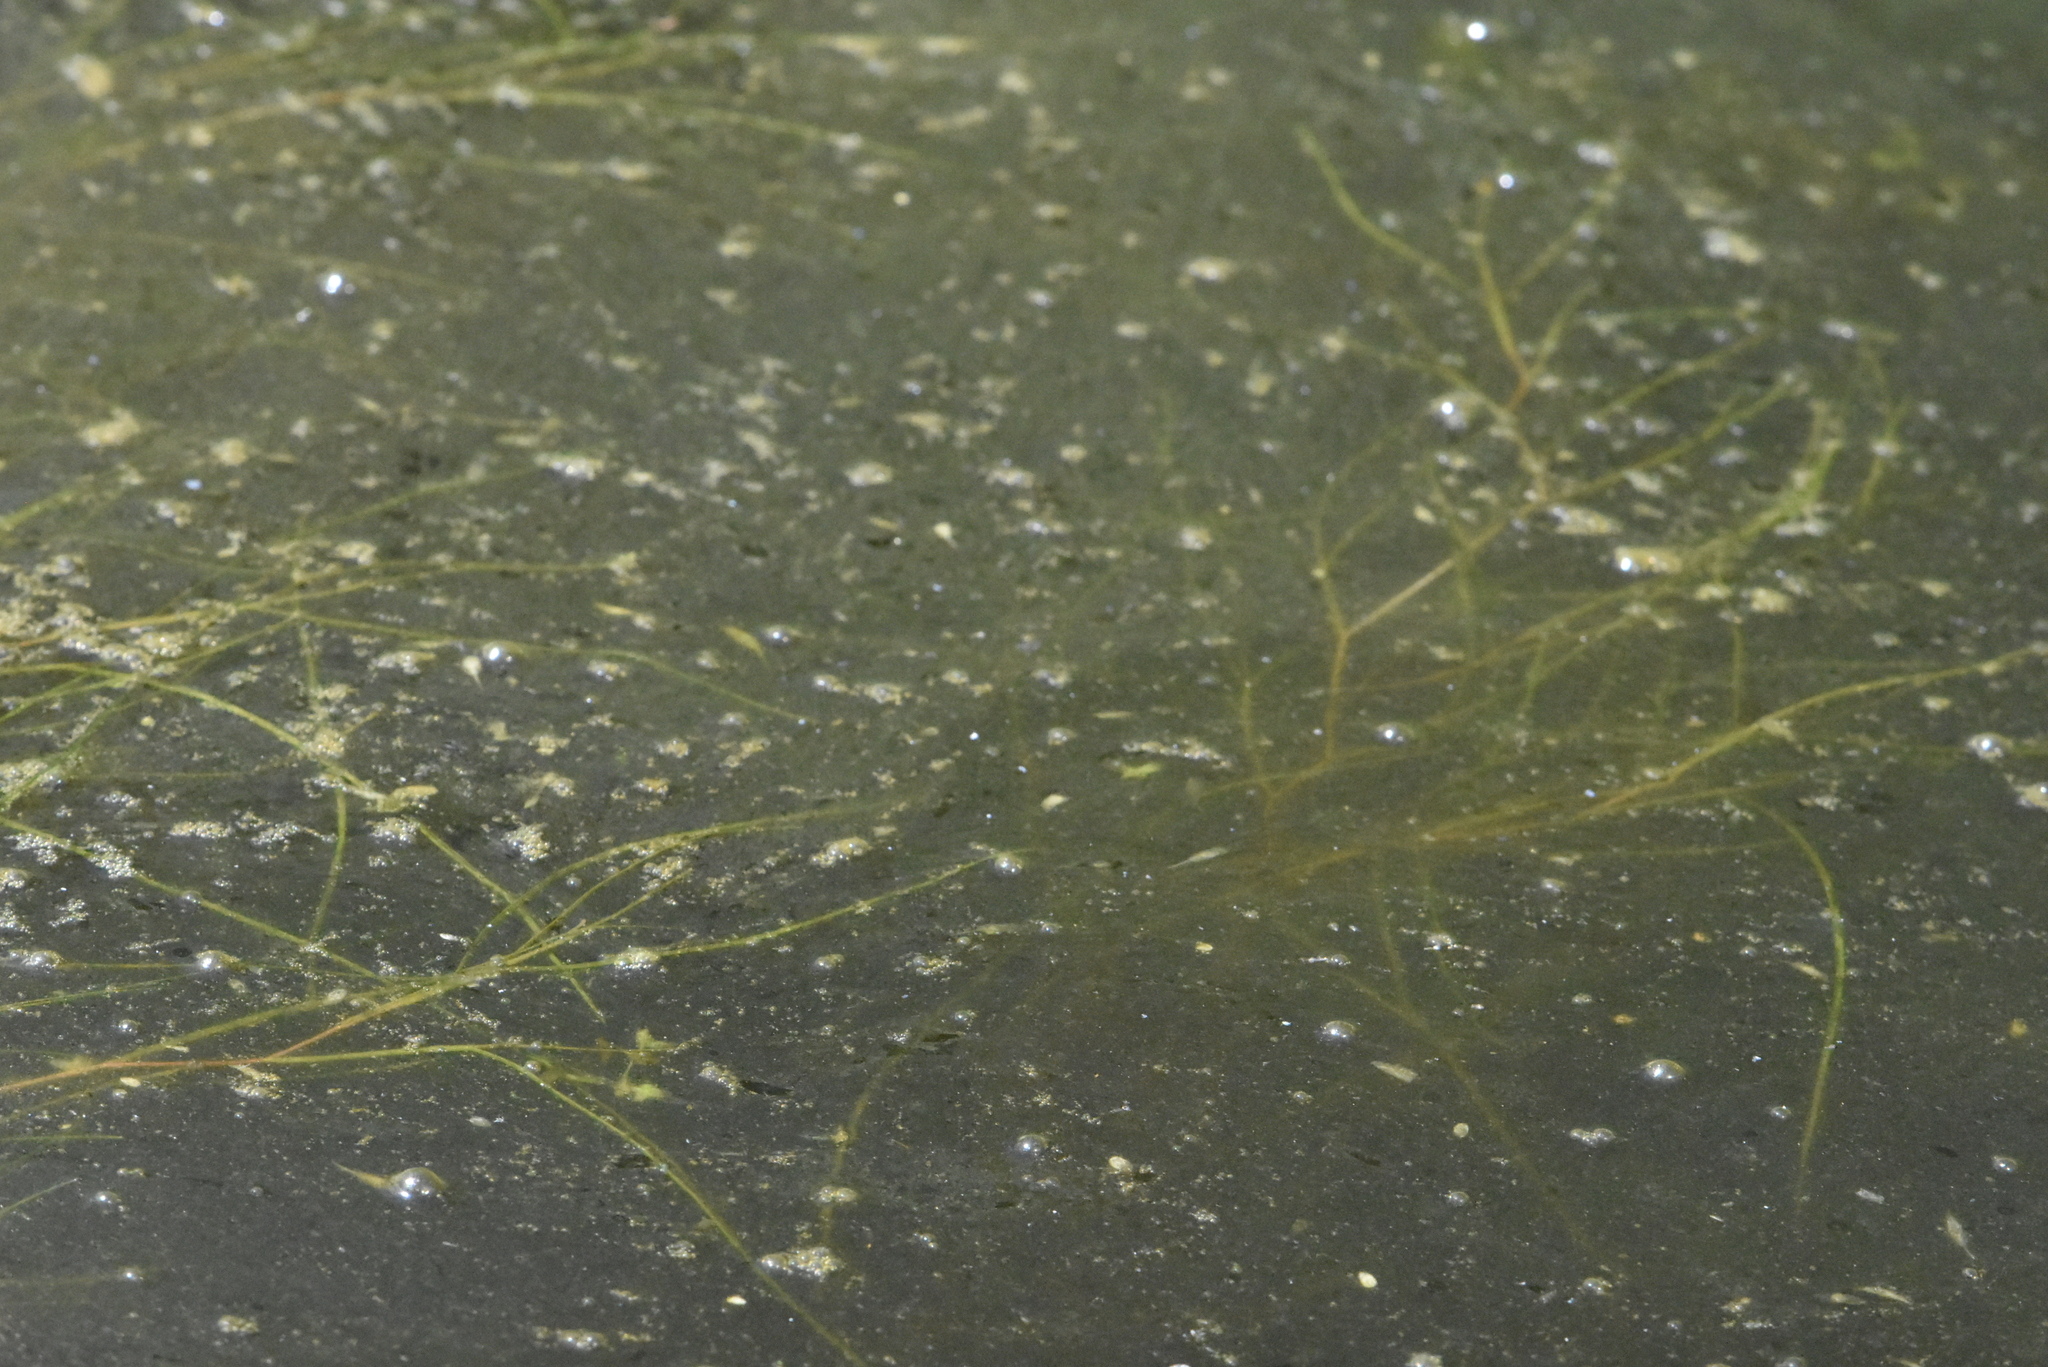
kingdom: Plantae
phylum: Tracheophyta
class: Liliopsida
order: Alismatales
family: Potamogetonaceae
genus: Stuckenia
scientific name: Stuckenia pectinata
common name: Sago pondweed
